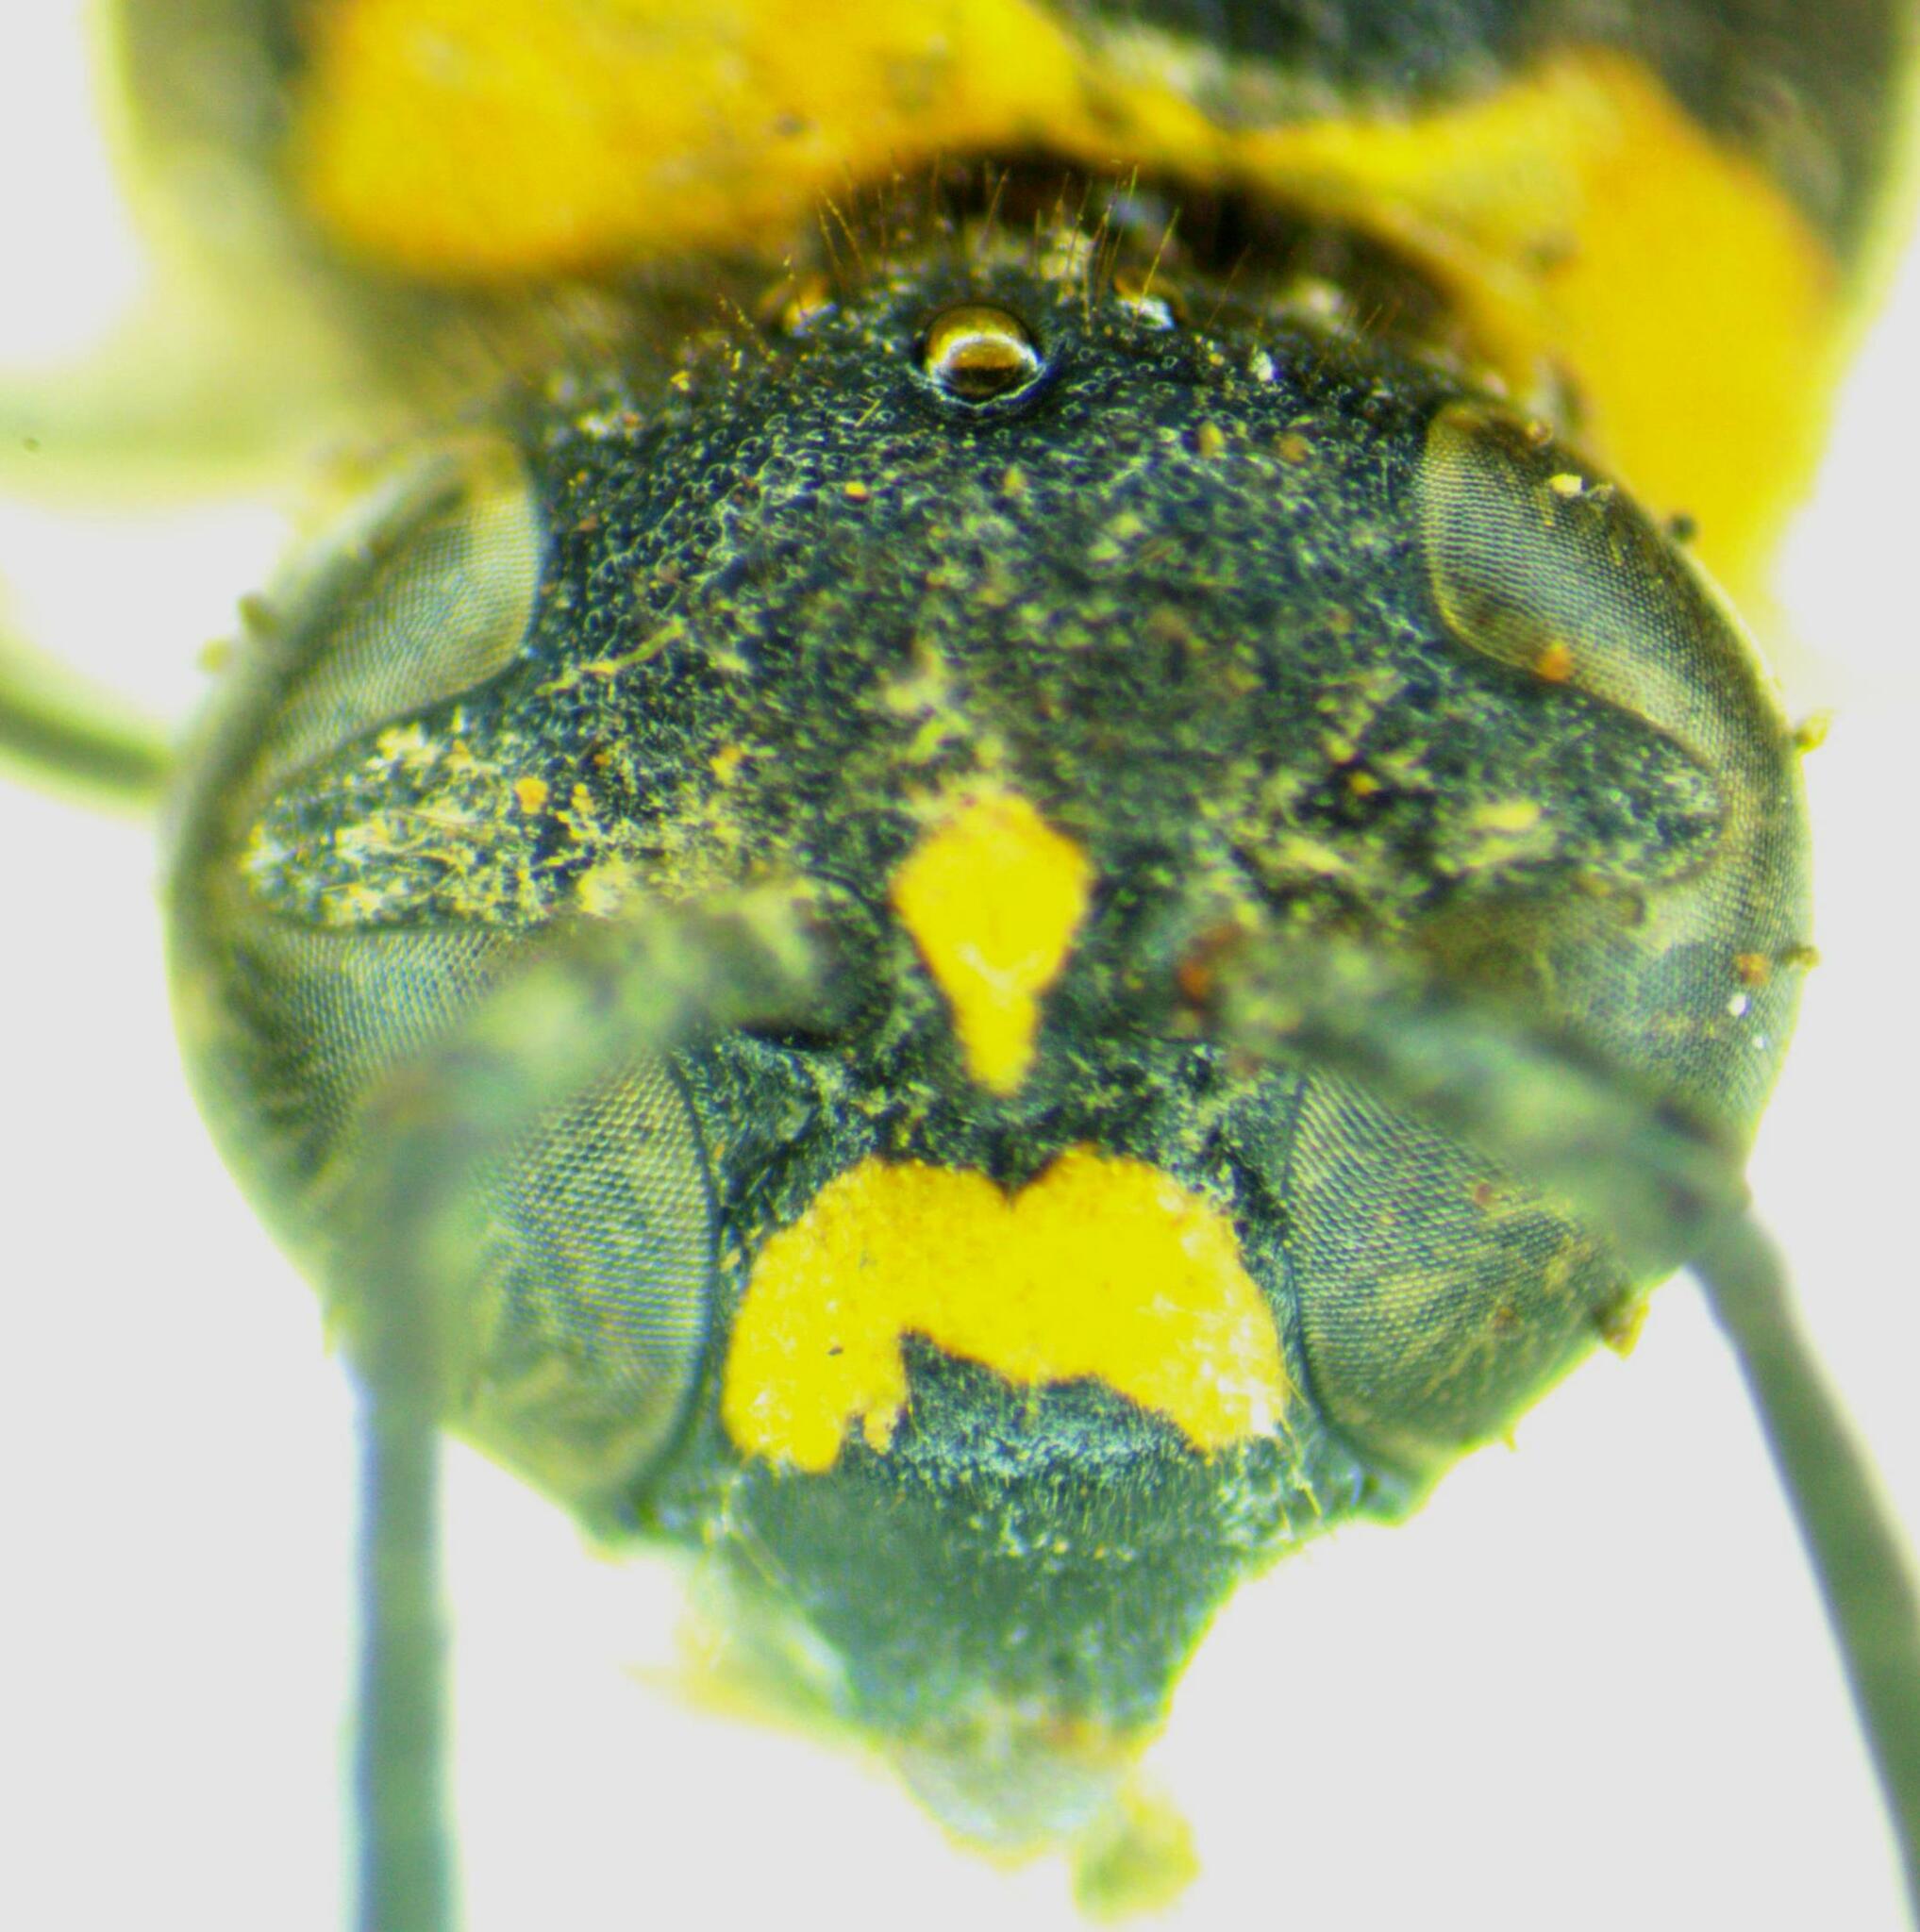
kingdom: Animalia
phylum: Arthropoda
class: Insecta
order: Hymenoptera
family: Vespidae
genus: Eumenes
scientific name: Eumenes coronatus
